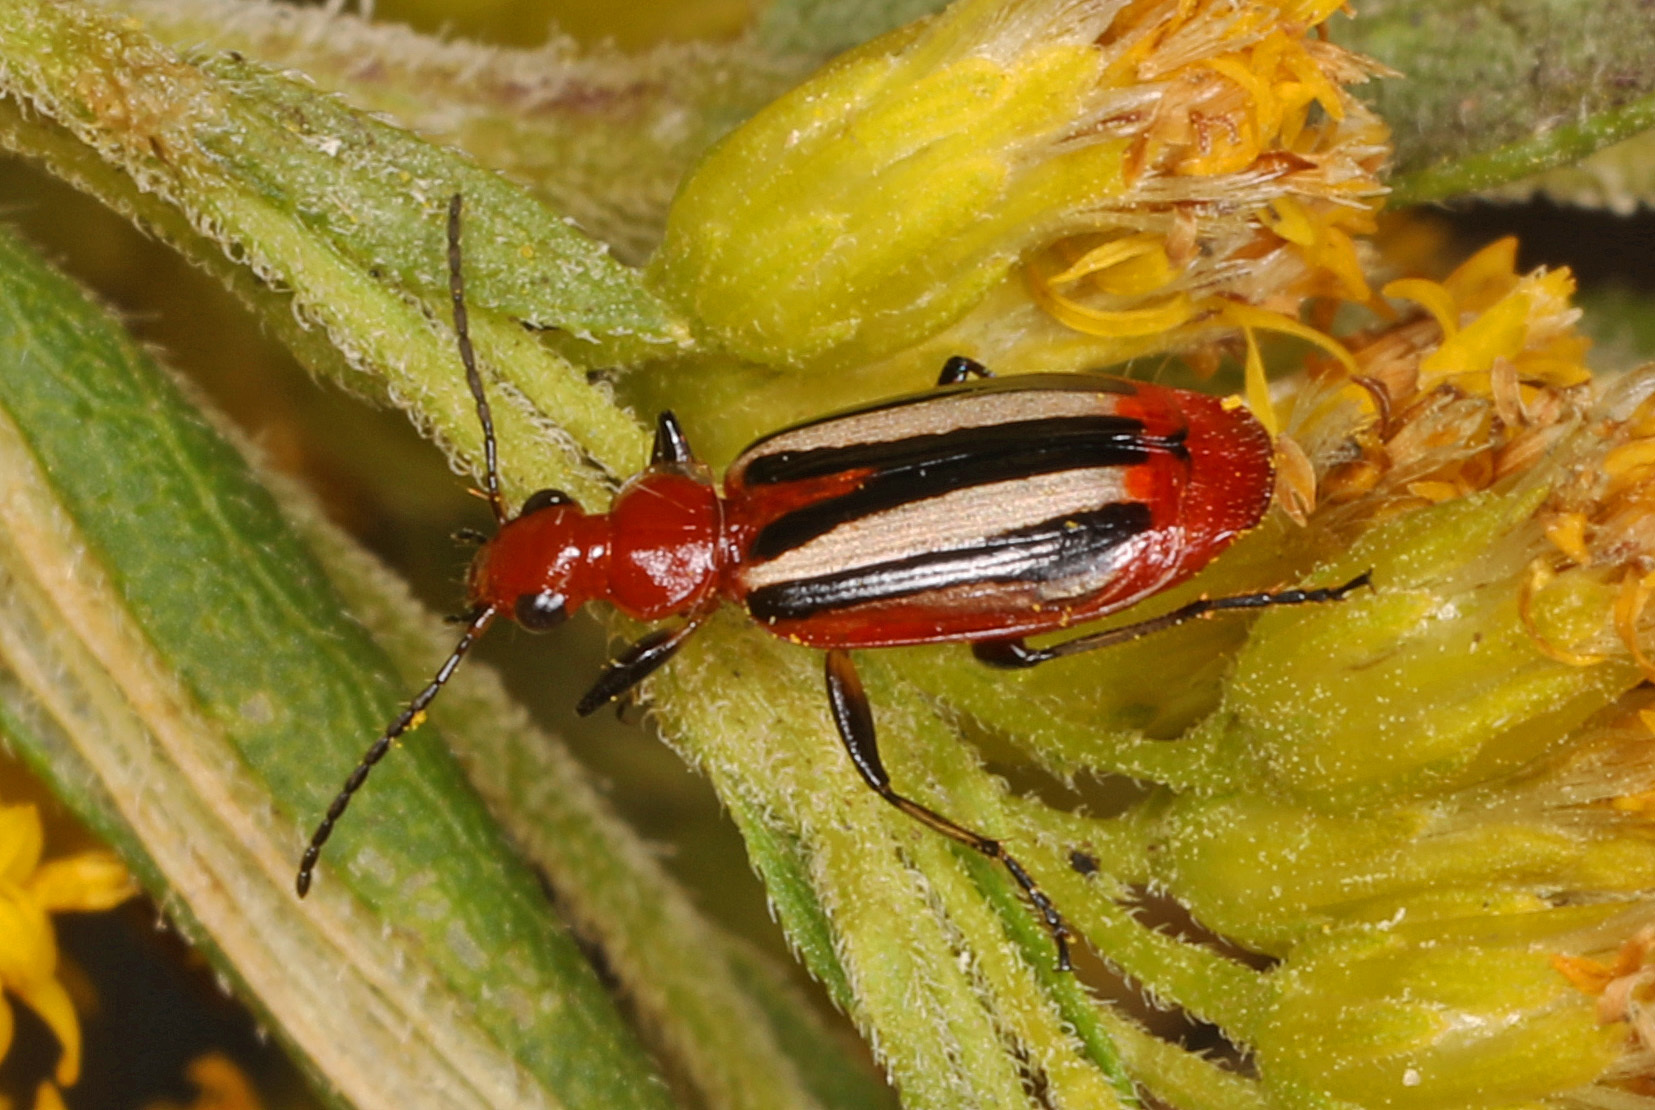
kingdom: Animalia
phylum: Arthropoda
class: Insecta
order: Coleoptera
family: Carabidae
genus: Lebia
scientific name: Lebia vittata
